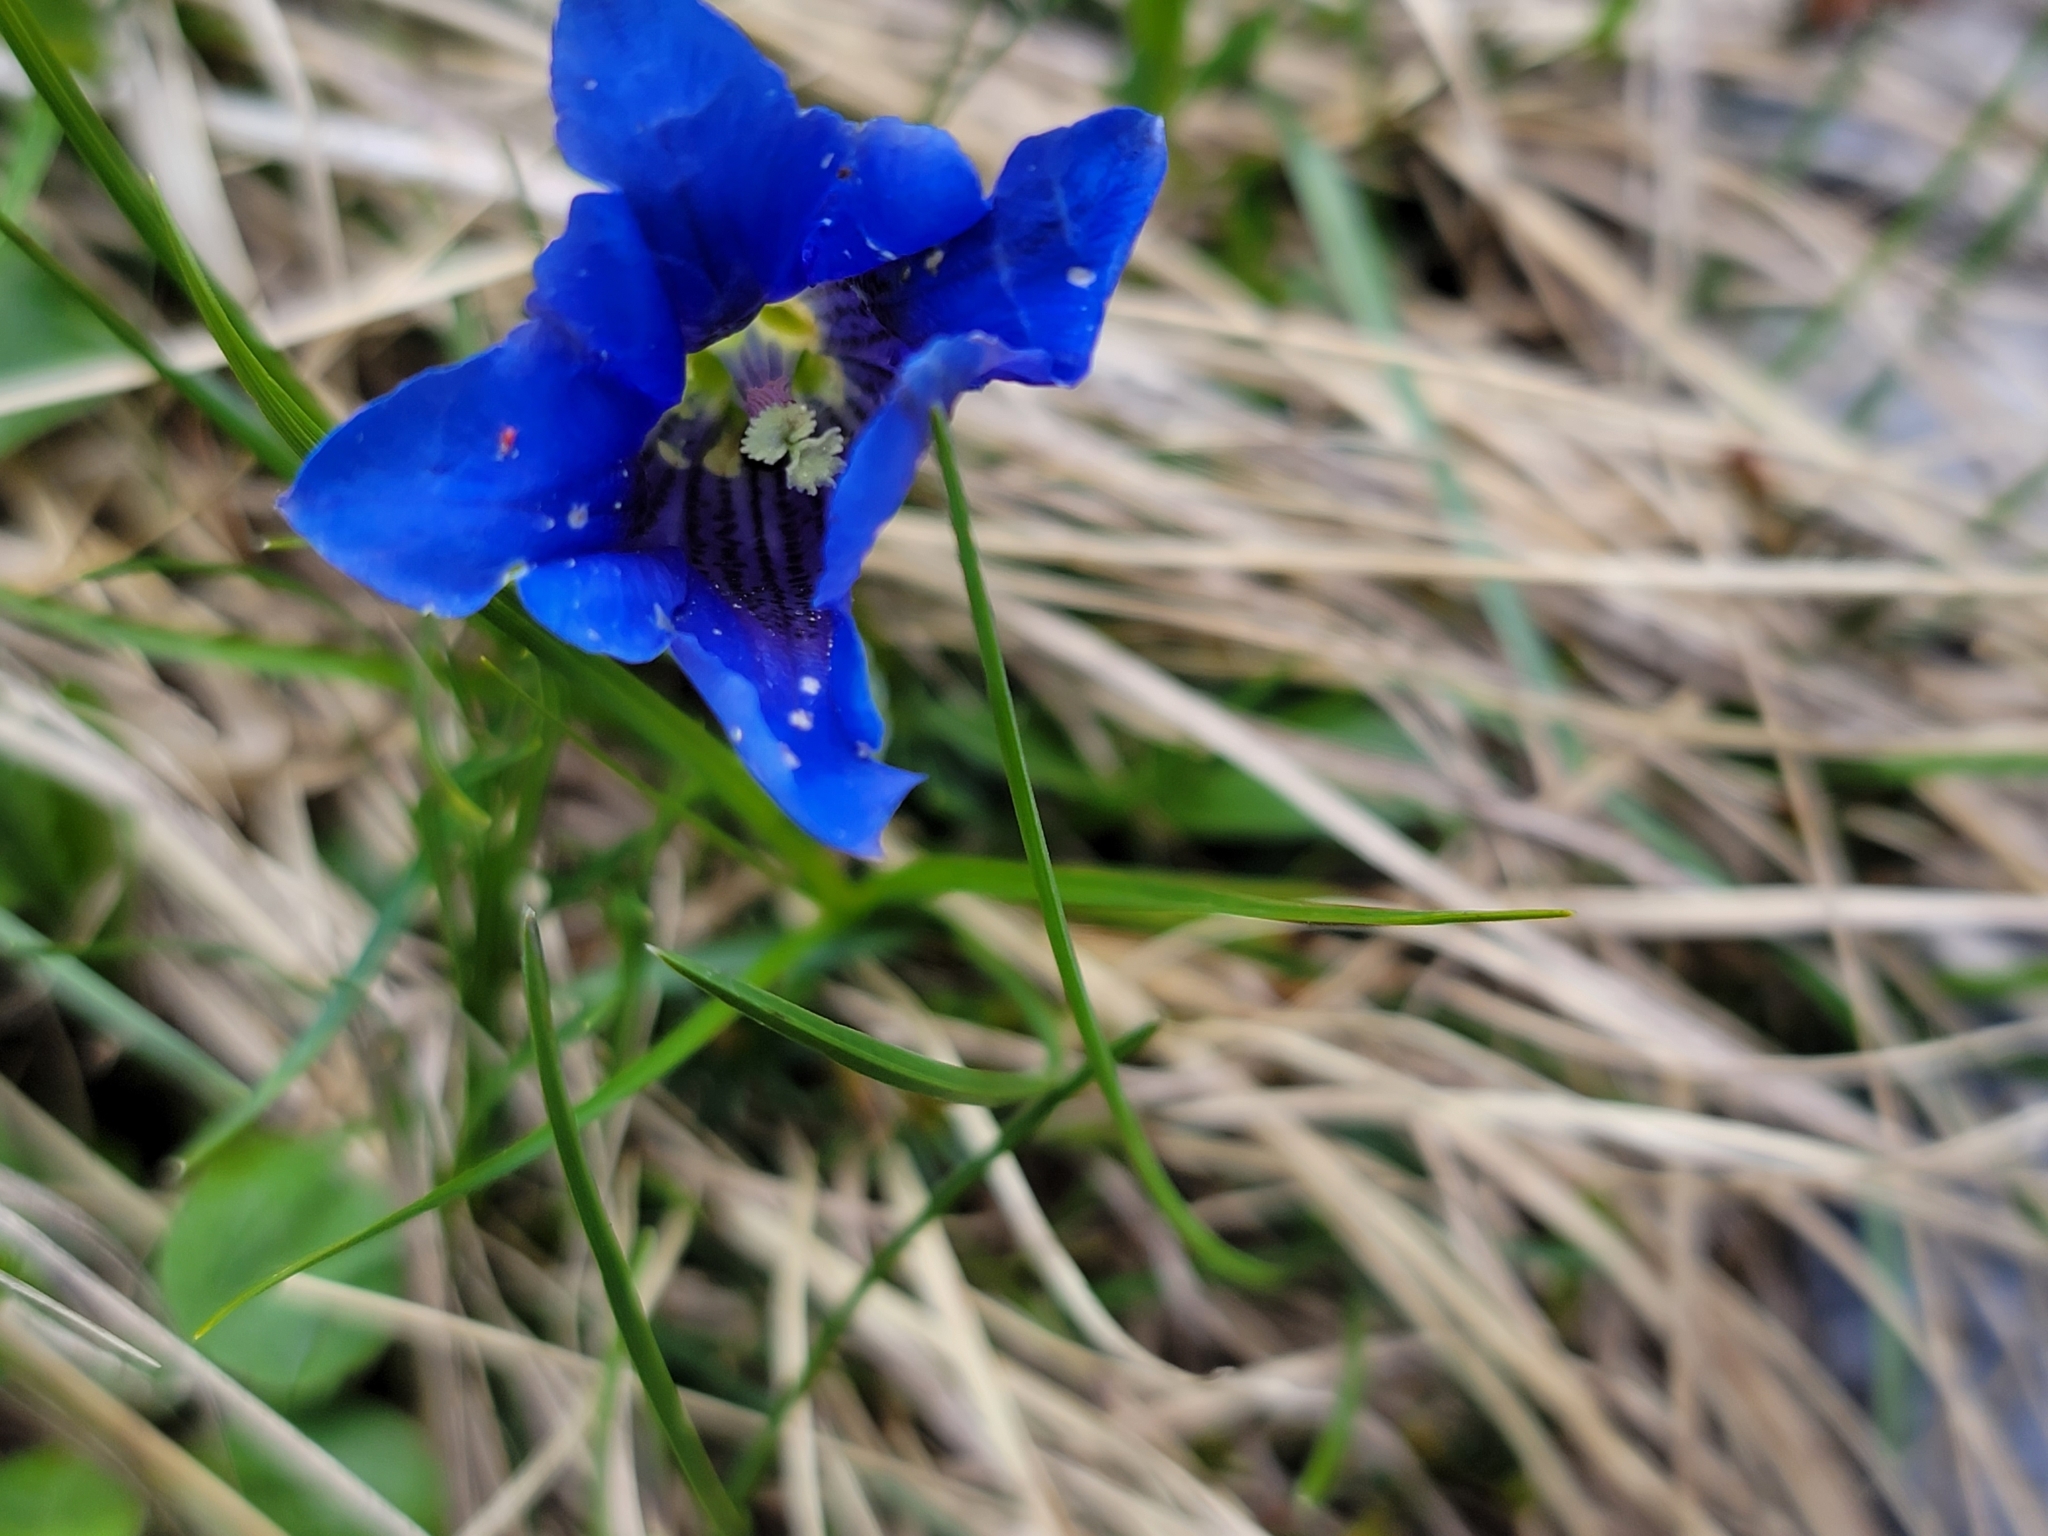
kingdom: Plantae
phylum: Tracheophyta
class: Magnoliopsida
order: Gentianales
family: Gentianaceae
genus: Gentiana
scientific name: Gentiana clusii
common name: Trumpet gentian
